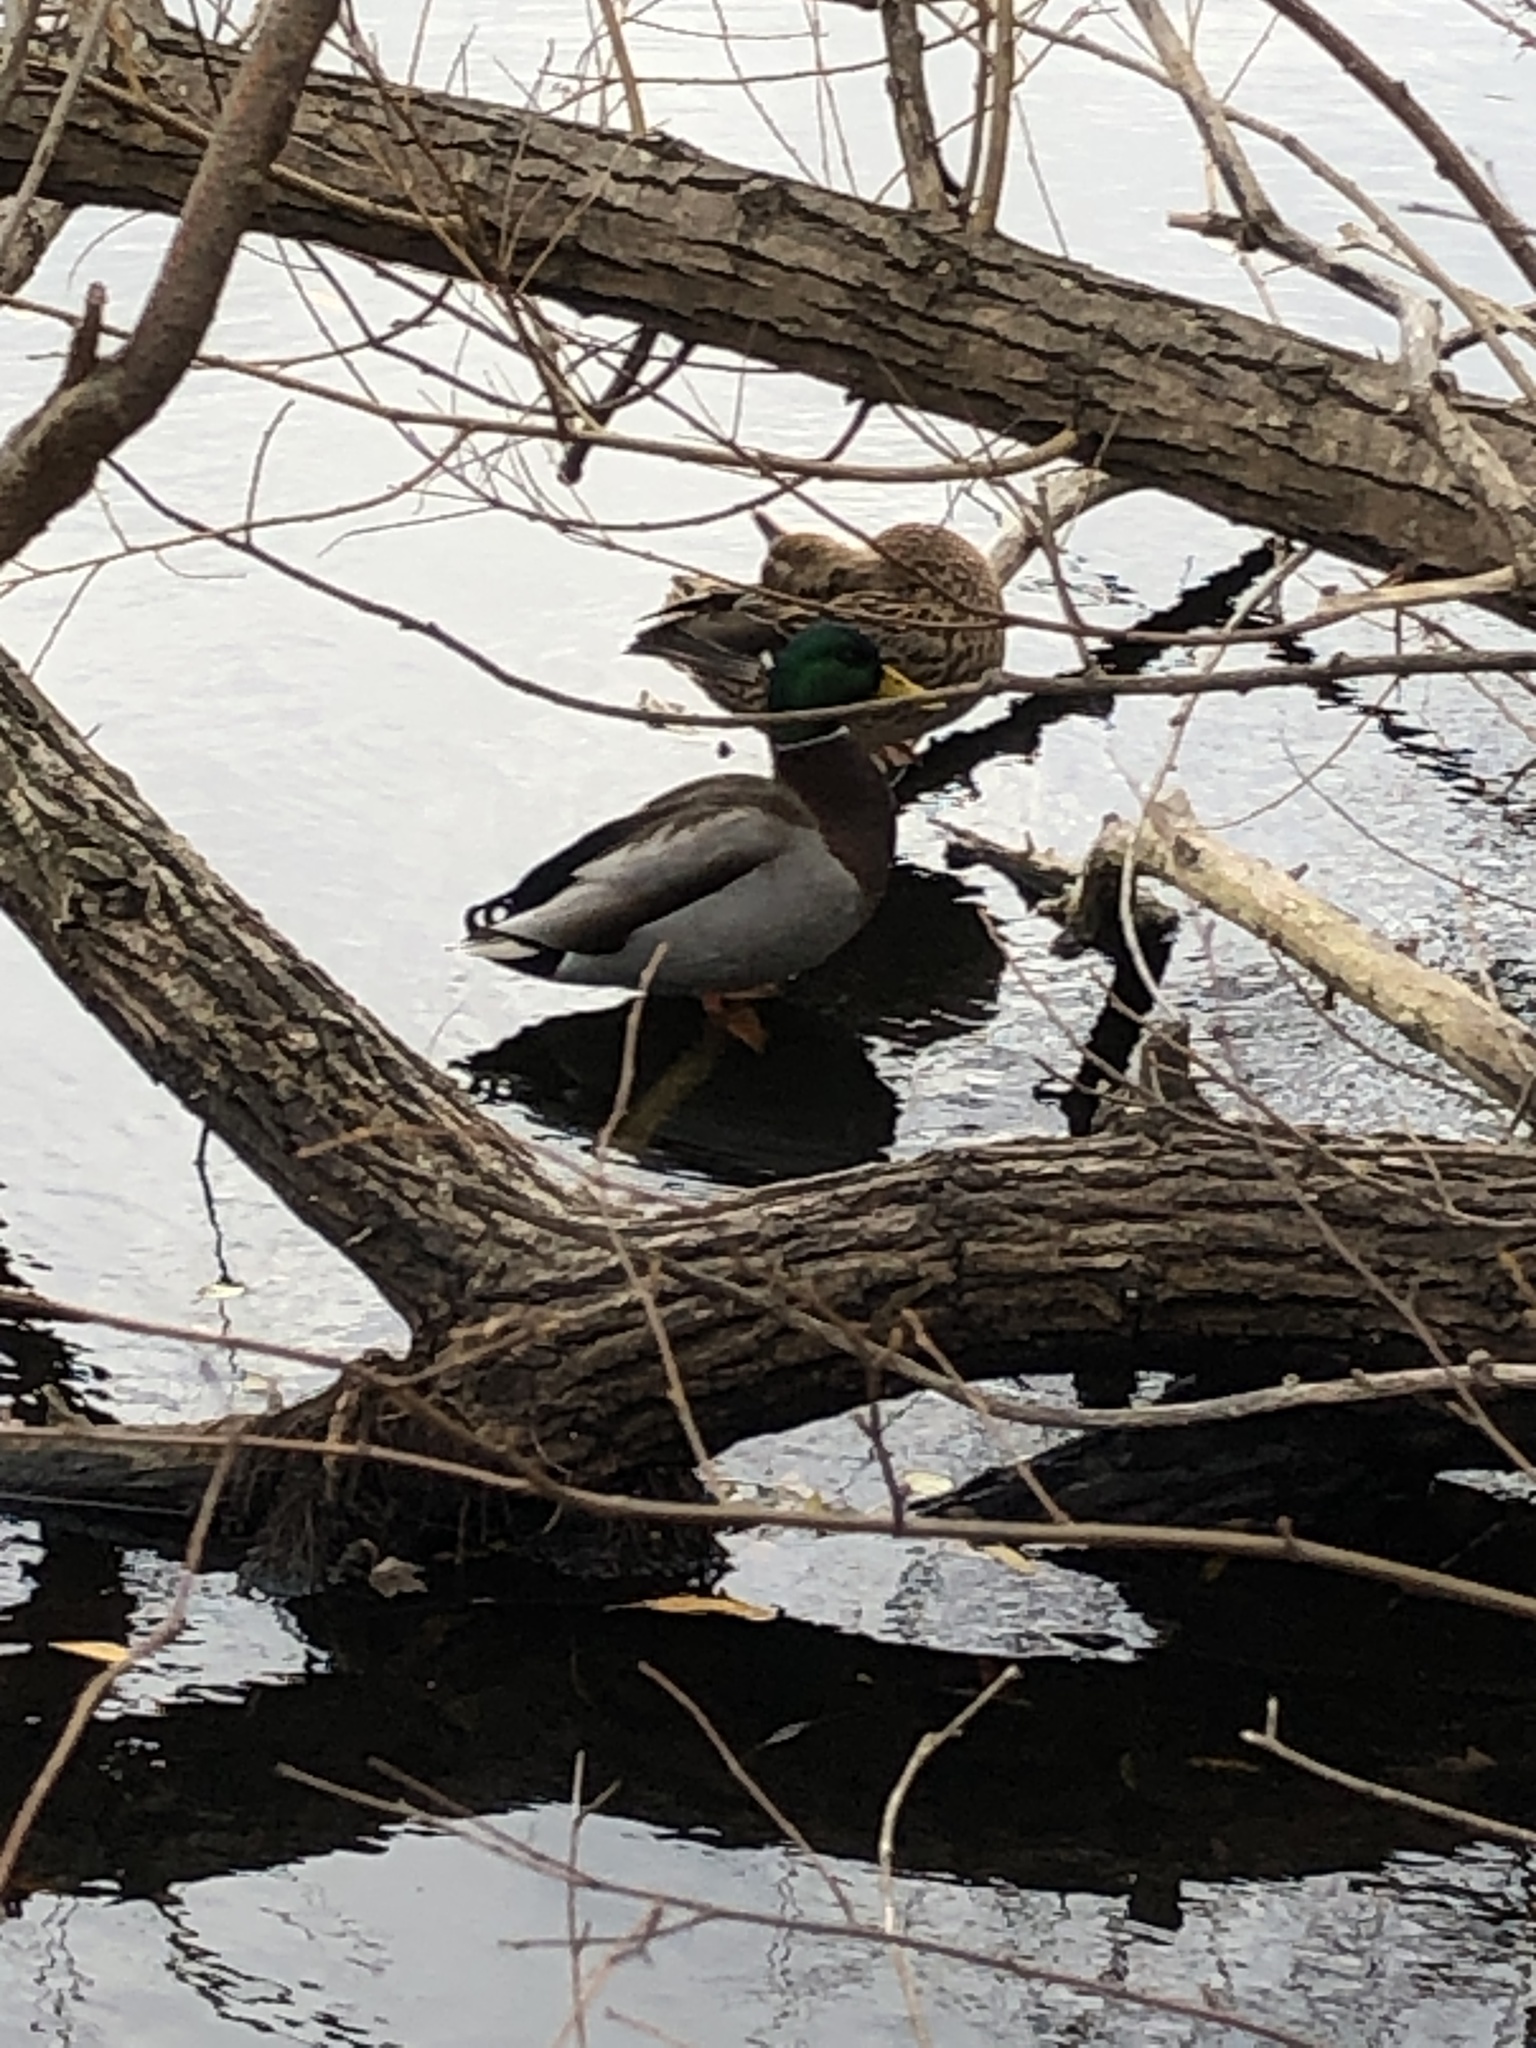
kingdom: Animalia
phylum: Chordata
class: Aves
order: Anseriformes
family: Anatidae
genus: Anas
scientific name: Anas platyrhynchos
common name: Mallard
